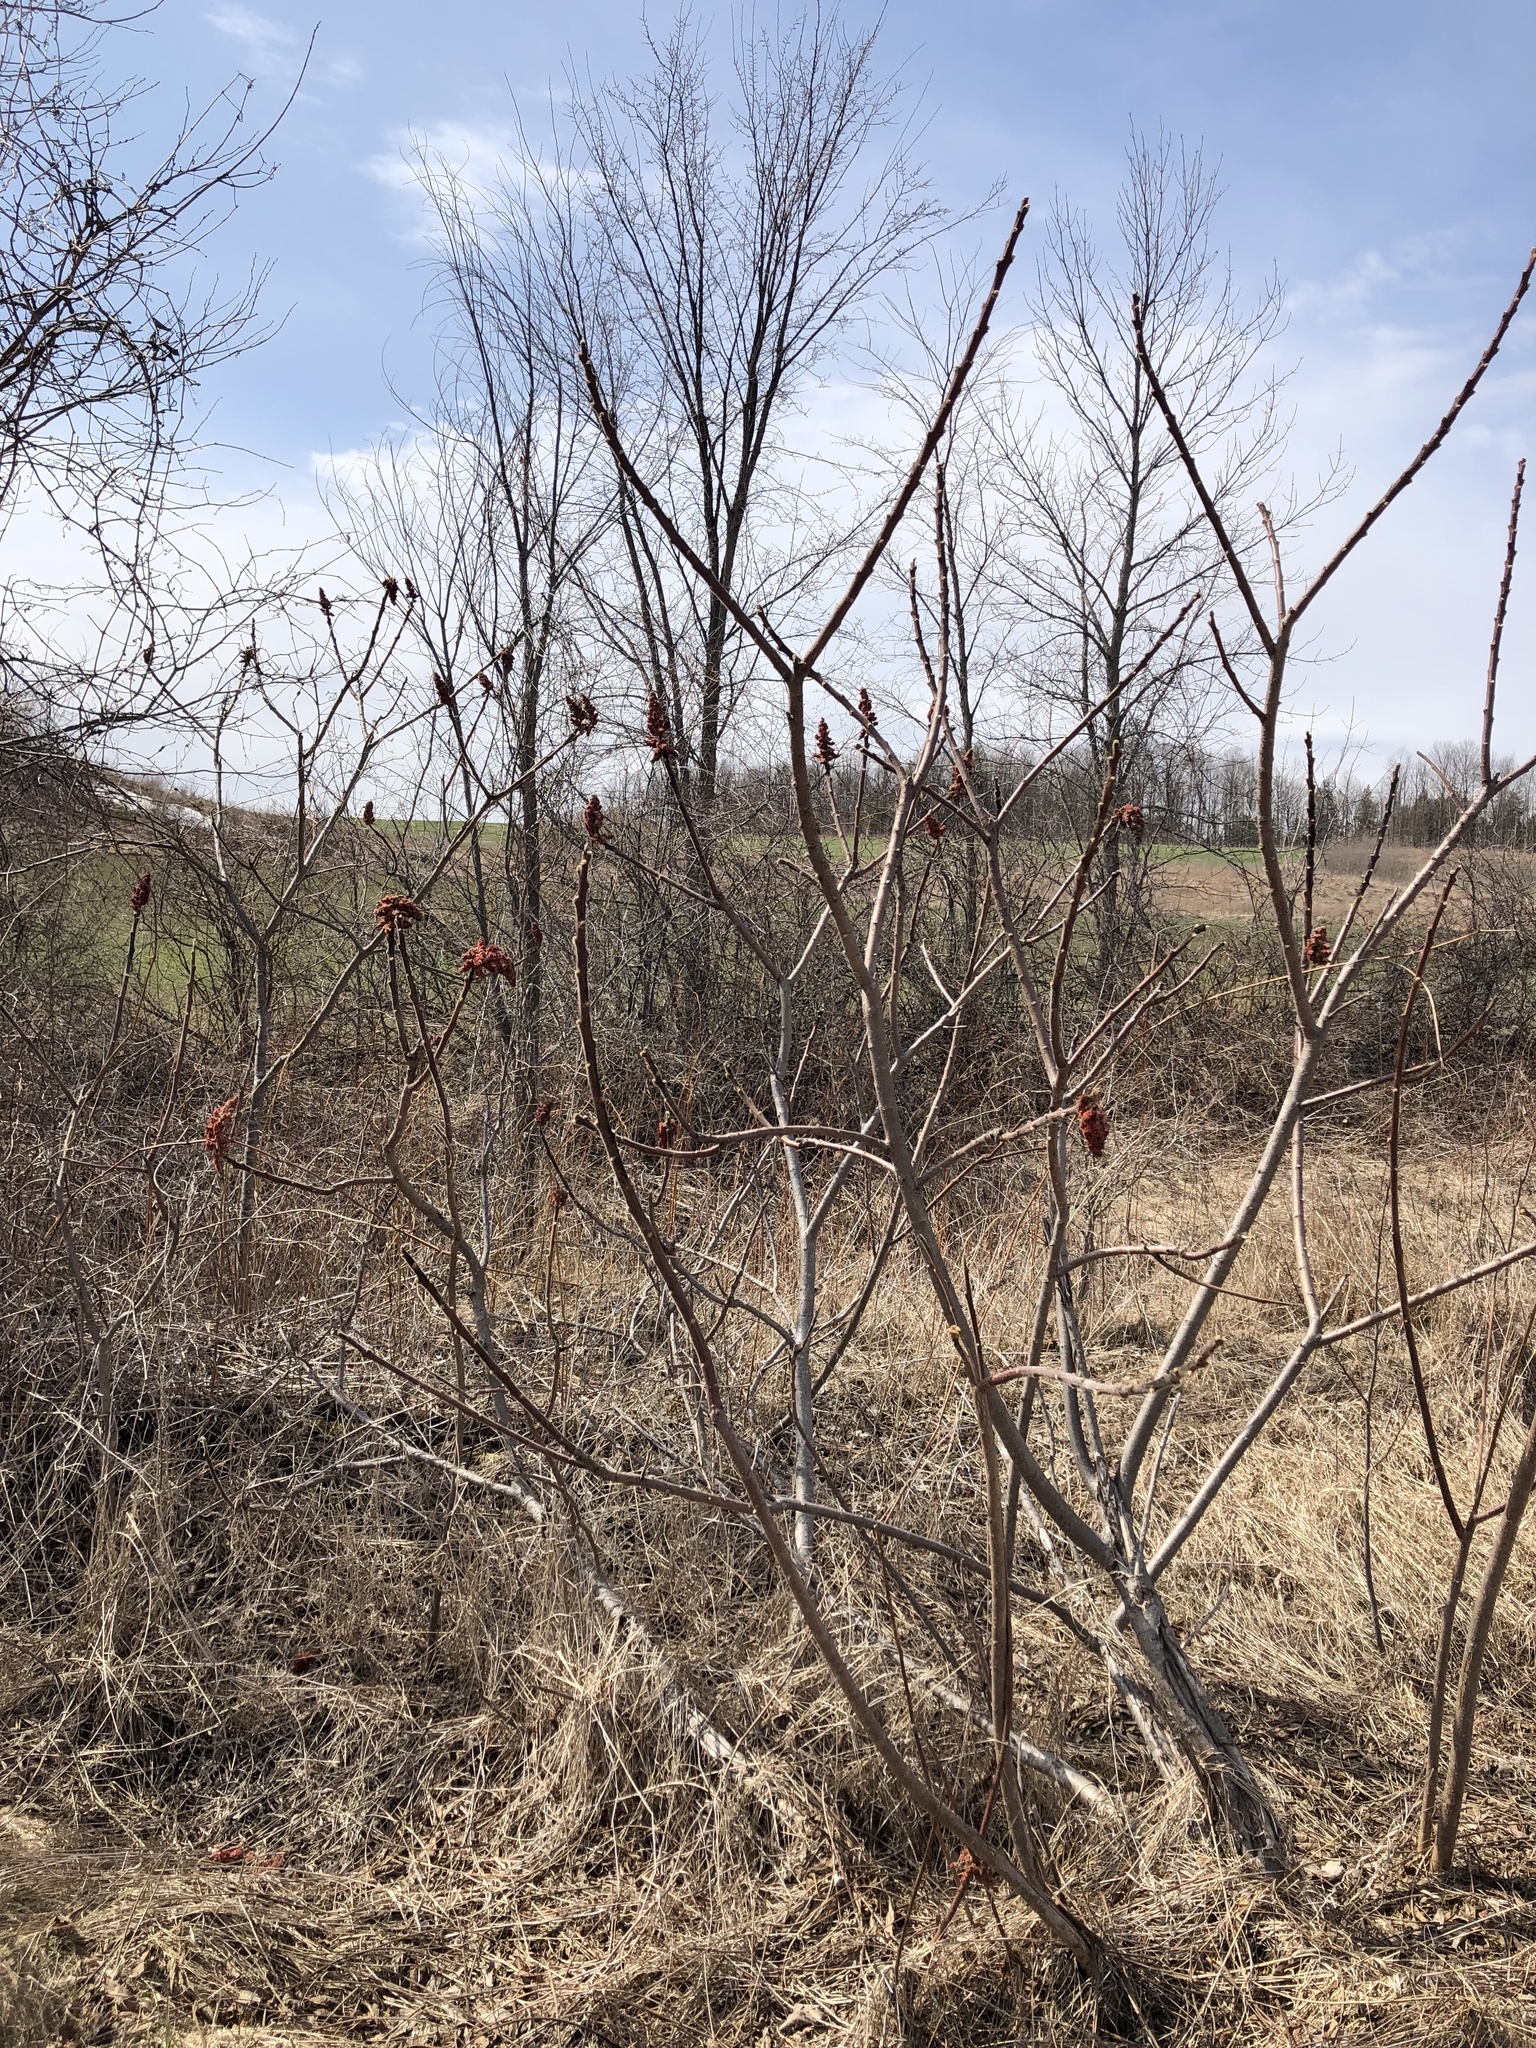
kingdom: Plantae
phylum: Tracheophyta
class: Magnoliopsida
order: Sapindales
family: Anacardiaceae
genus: Rhus
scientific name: Rhus typhina
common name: Staghorn sumac
